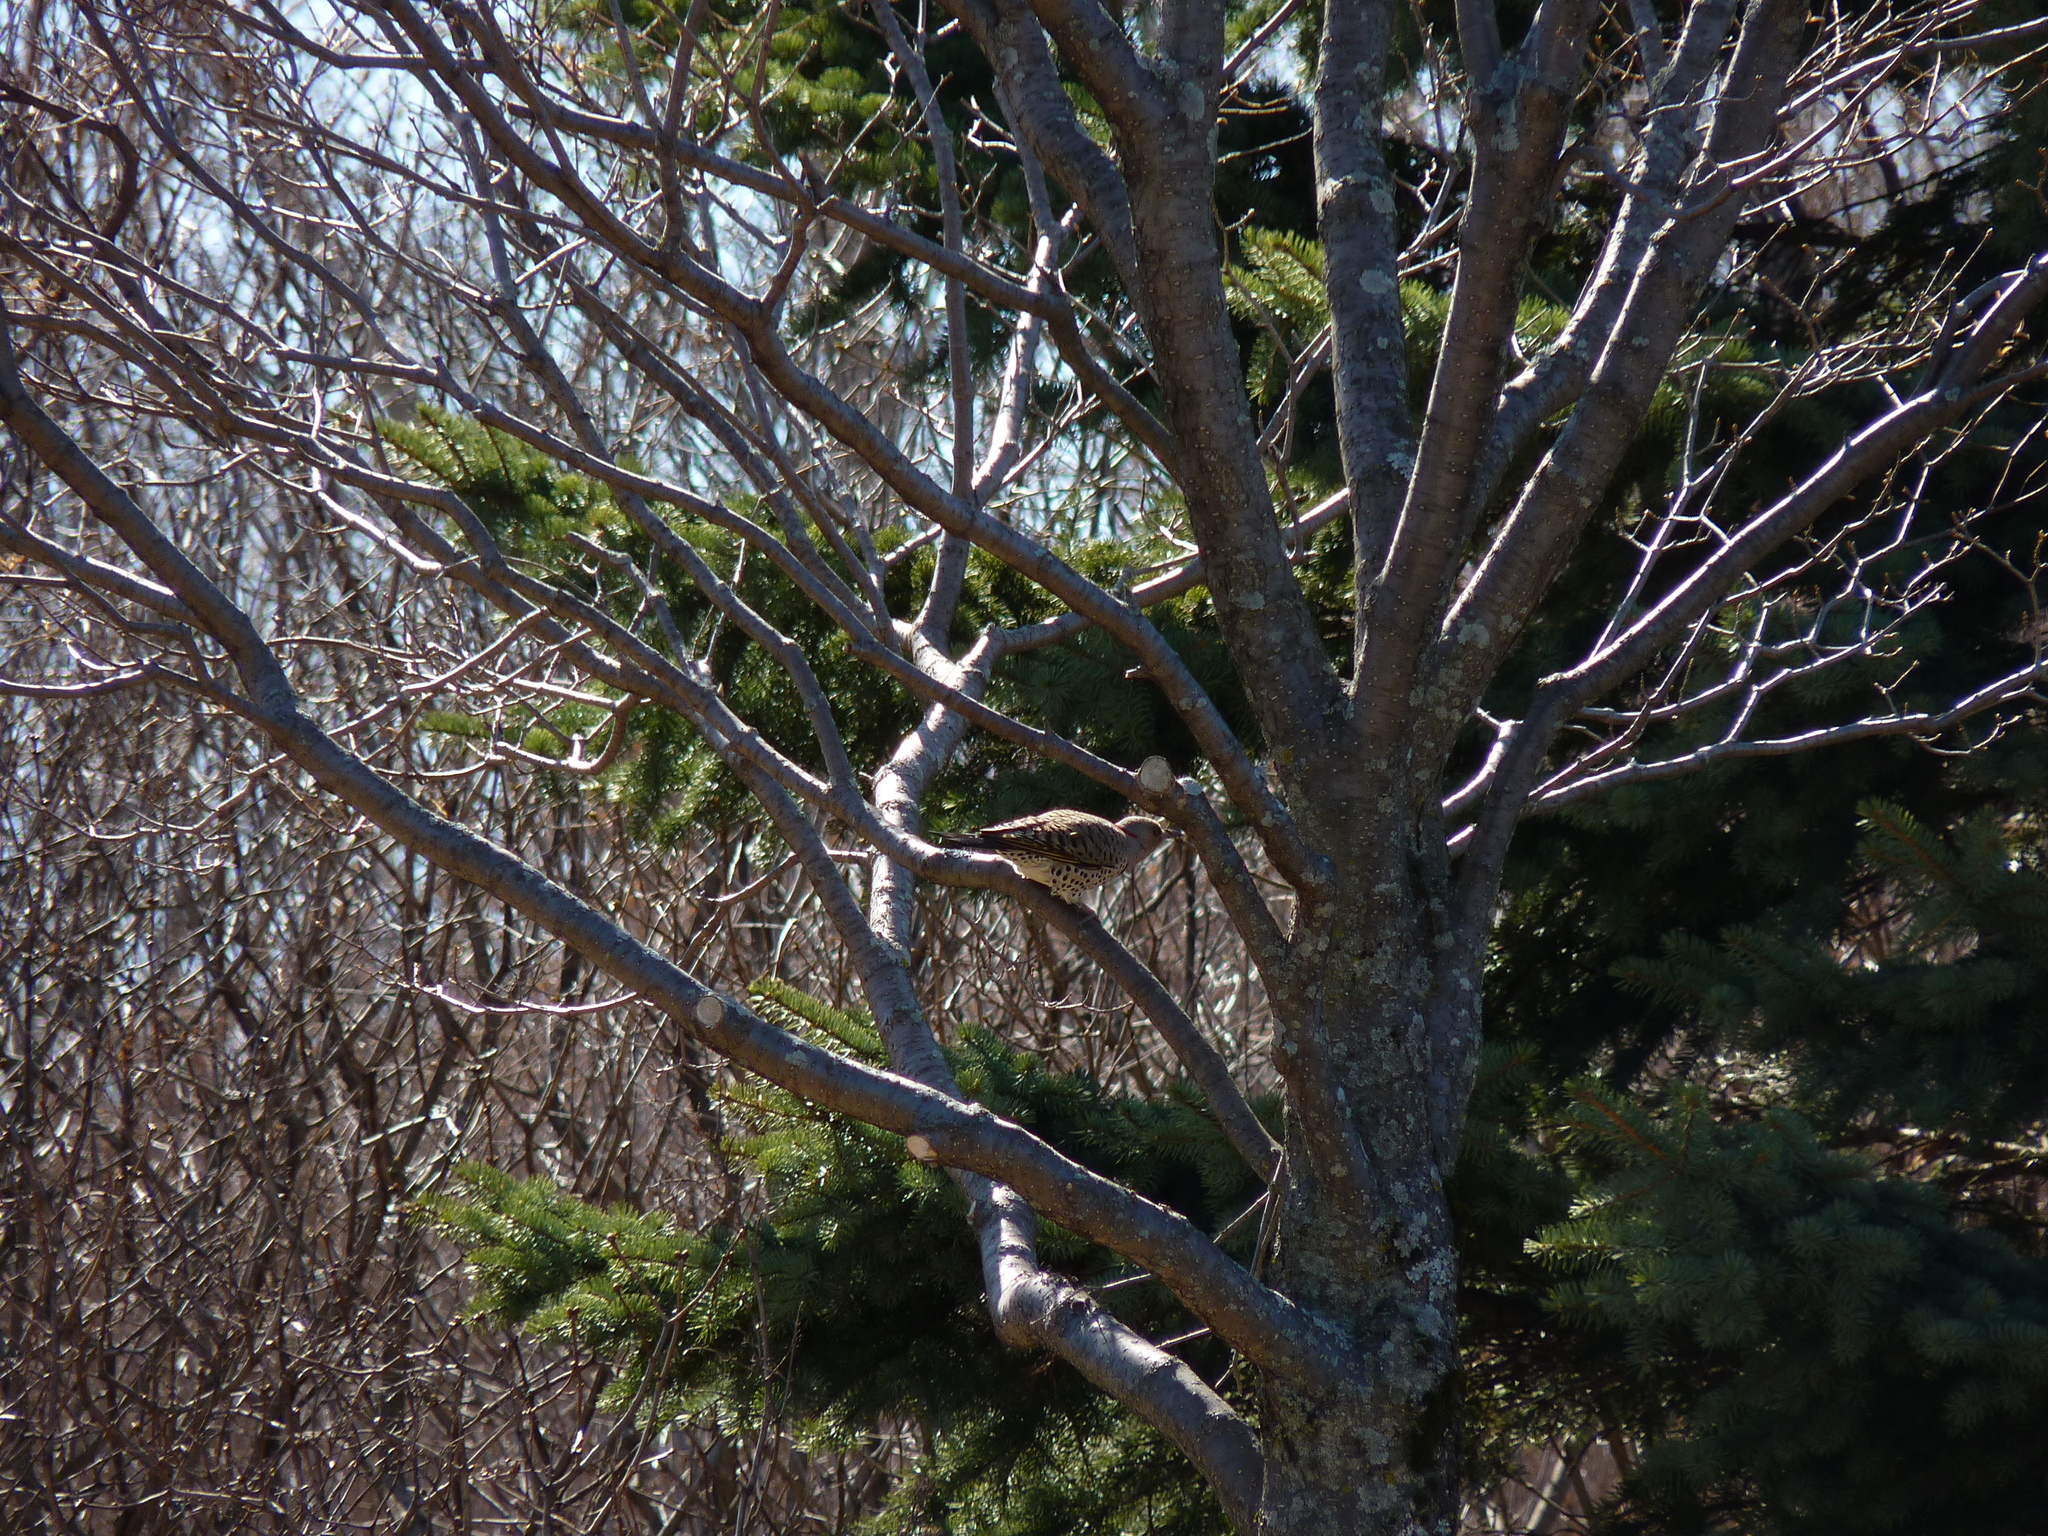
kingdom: Animalia
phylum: Chordata
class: Aves
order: Piciformes
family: Picidae
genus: Colaptes
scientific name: Colaptes auratus
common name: Northern flicker
